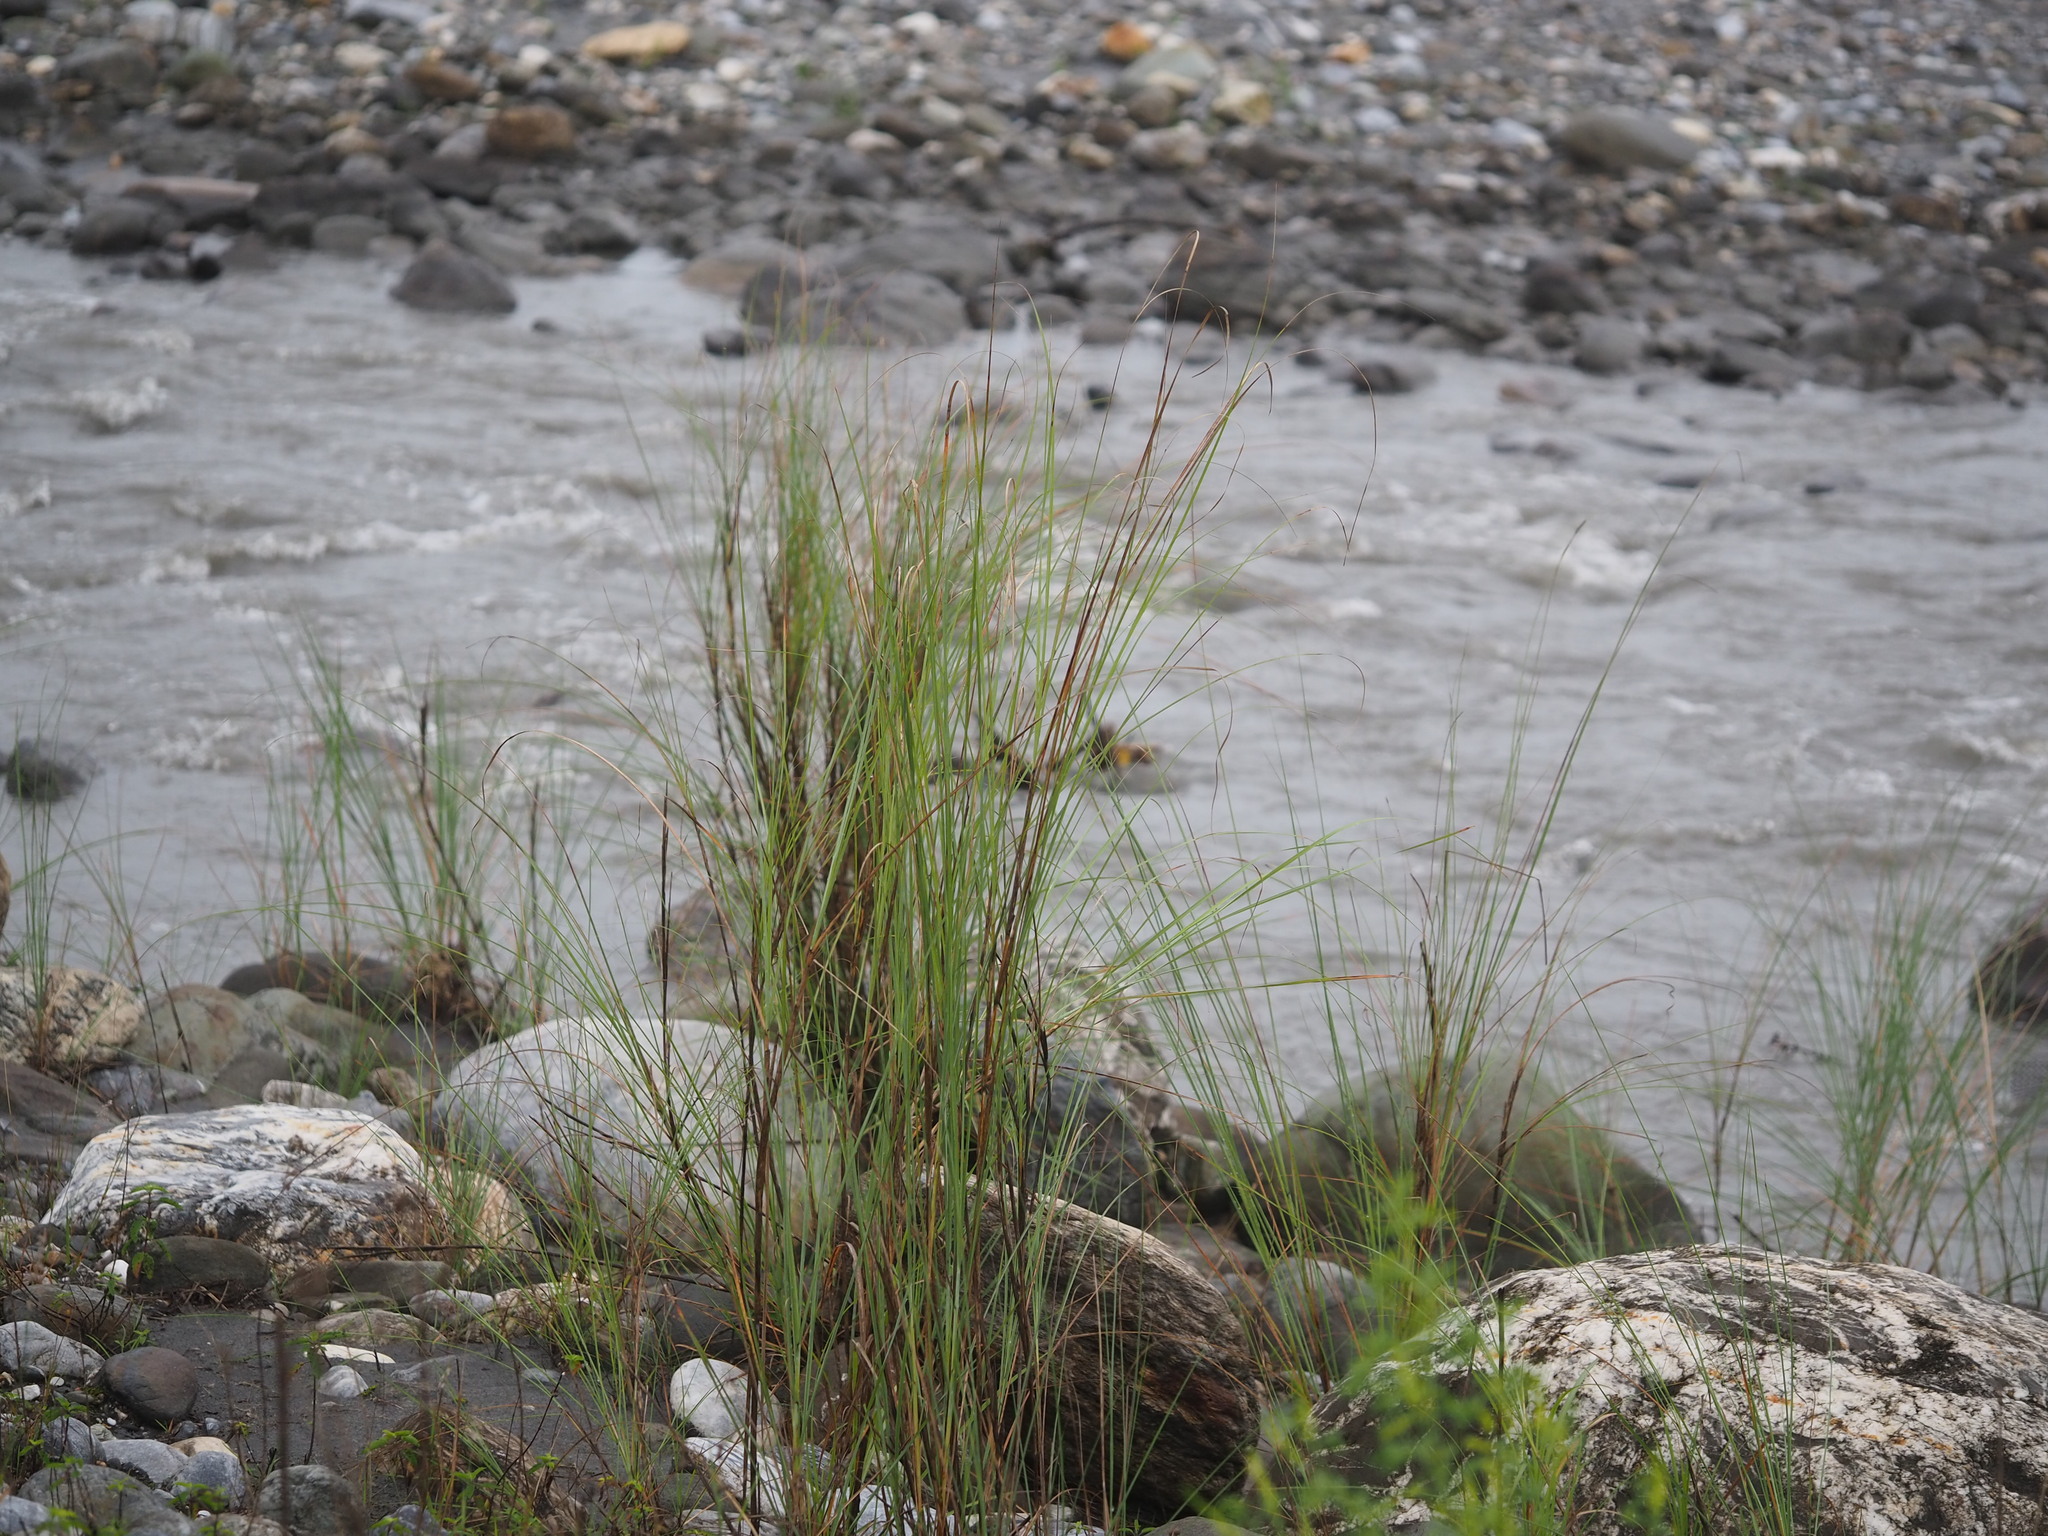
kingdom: Plantae
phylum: Tracheophyta
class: Liliopsida
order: Poales
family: Poaceae
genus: Saccharum
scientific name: Saccharum spontaneum
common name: Wild sugarcane
